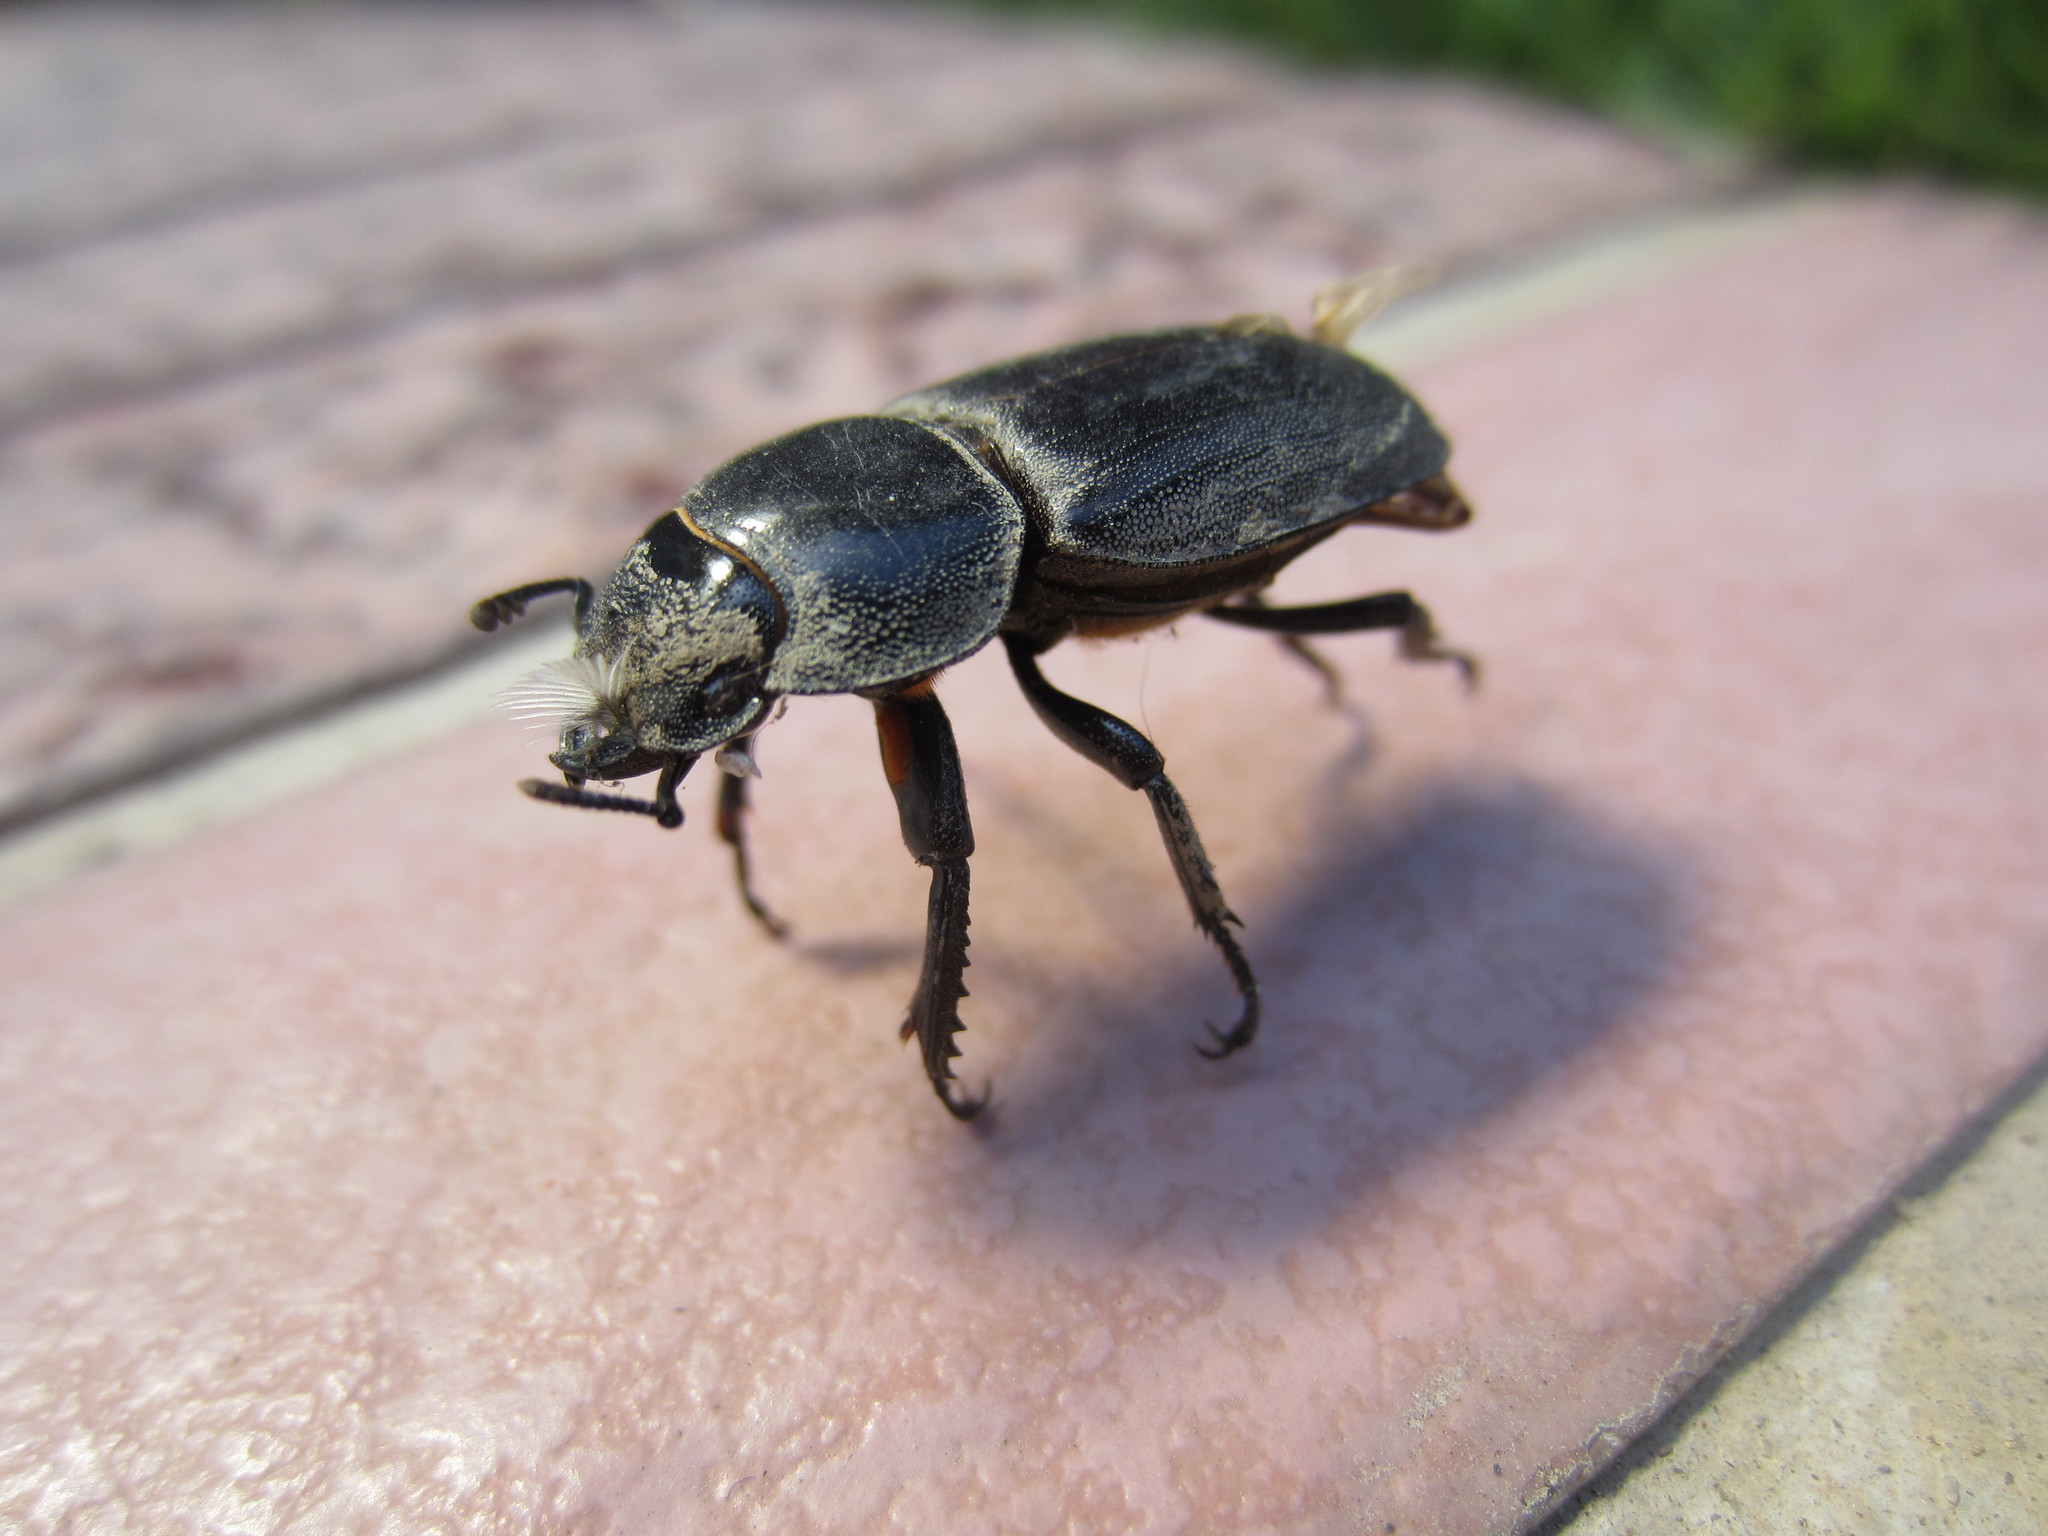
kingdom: Animalia
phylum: Arthropoda
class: Insecta
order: Coleoptera
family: Lucanidae
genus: Serrognathus
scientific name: Serrognathus titanus
